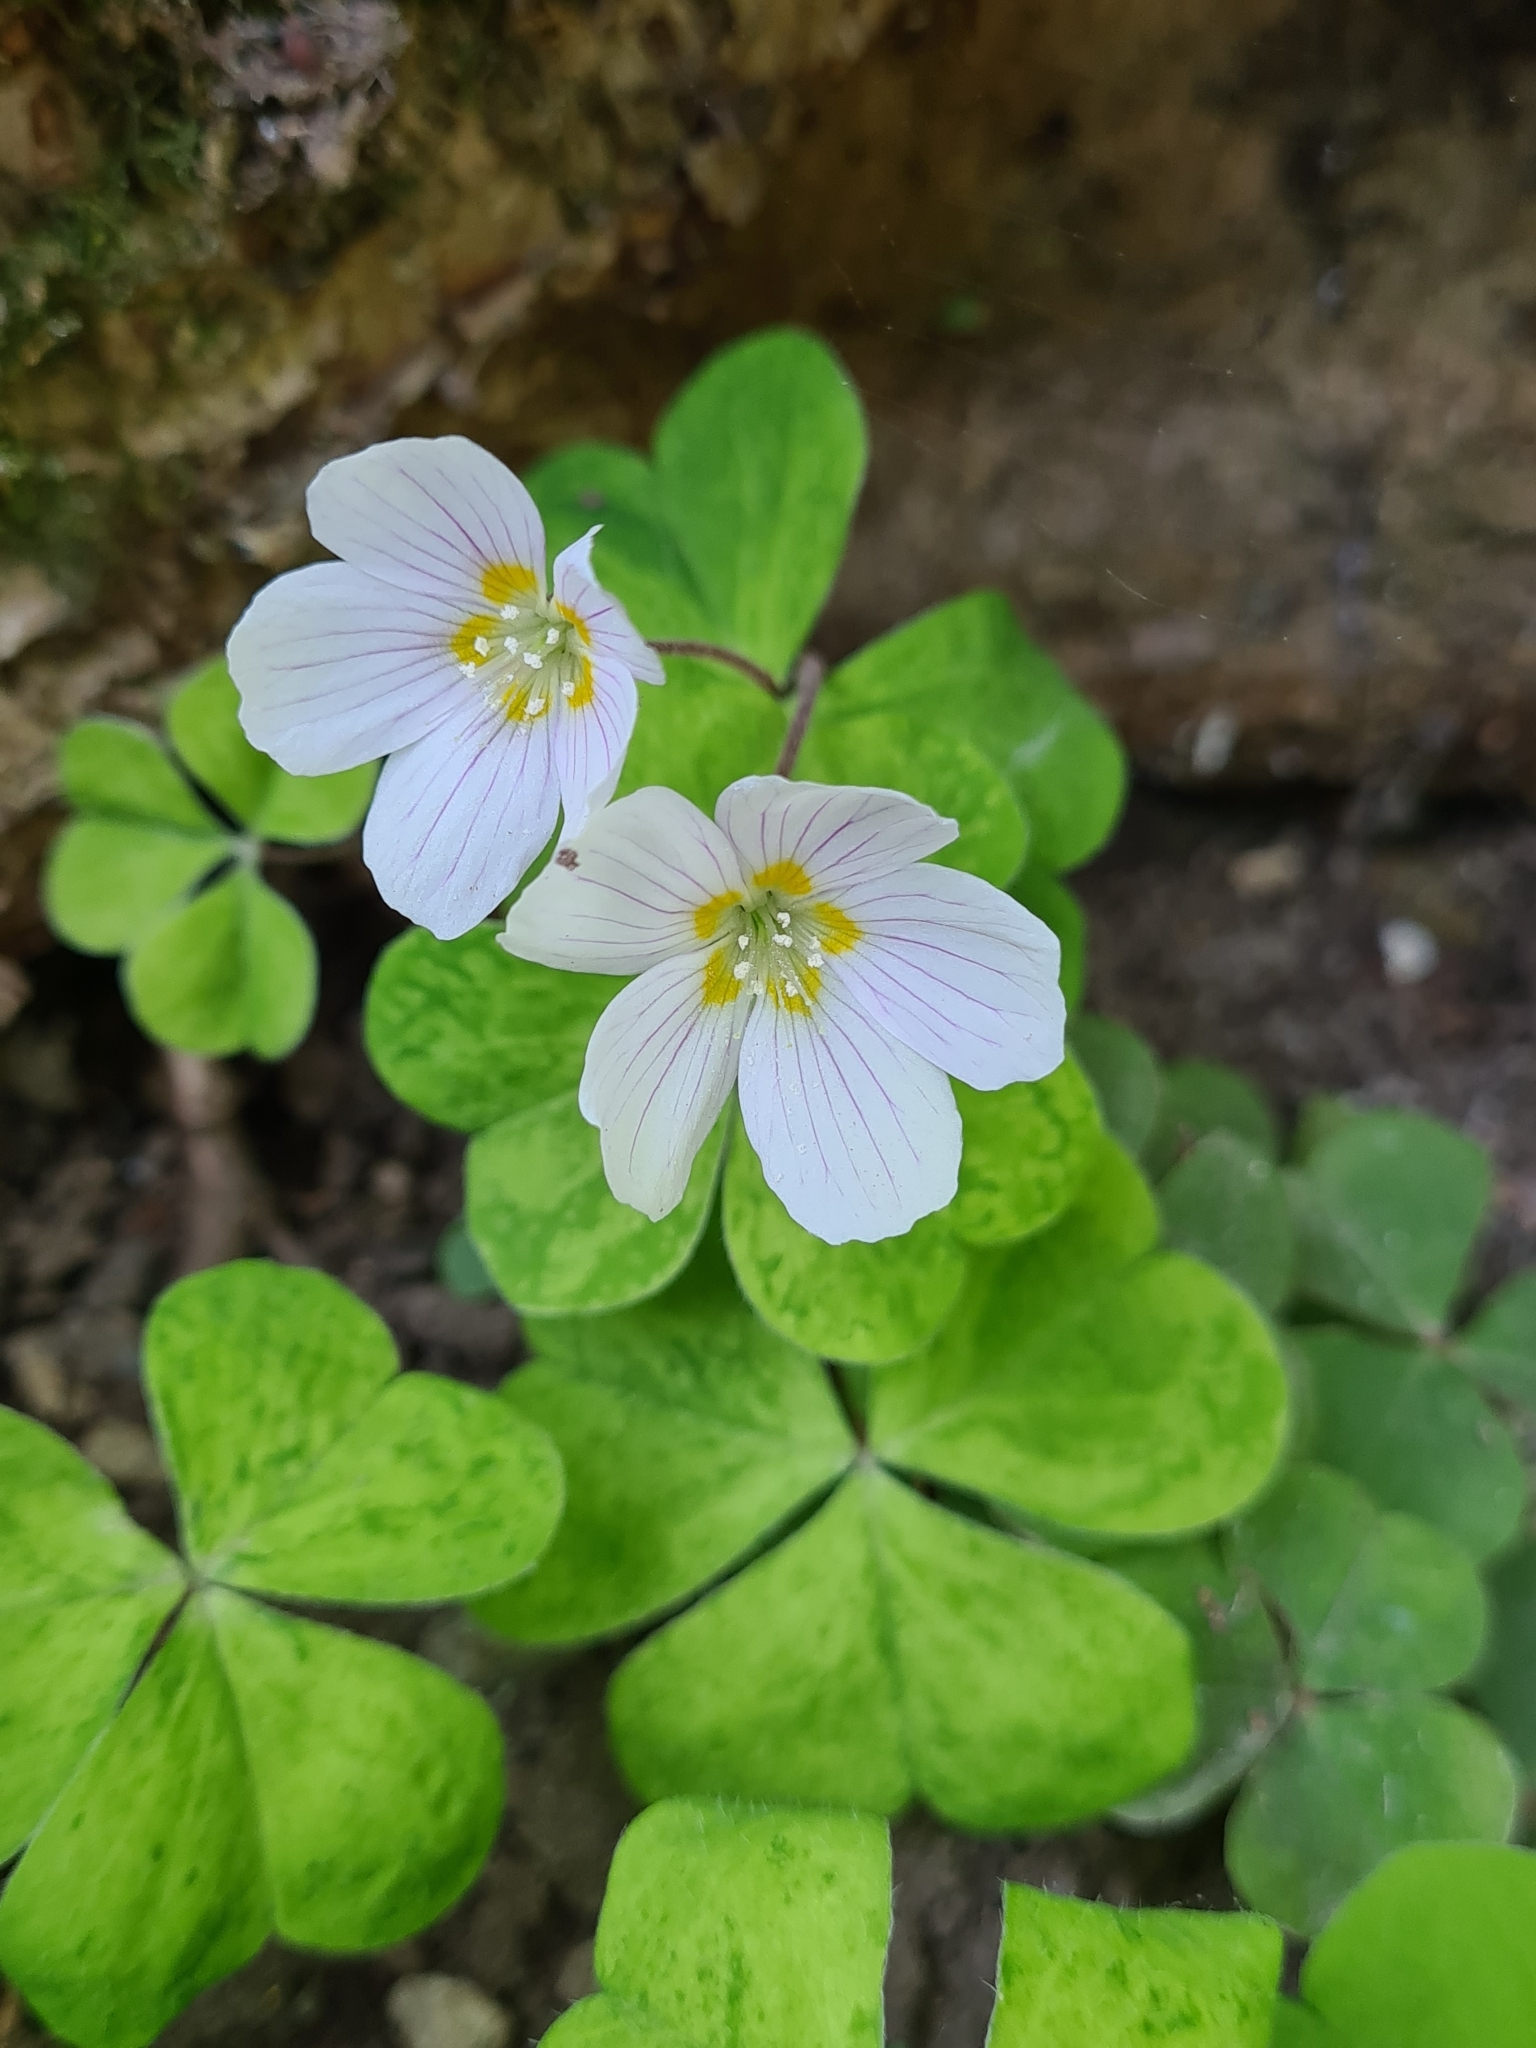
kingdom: Plantae
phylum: Tracheophyta
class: Magnoliopsida
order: Oxalidales
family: Oxalidaceae
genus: Oxalis
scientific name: Oxalis acetosella
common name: Wood-sorrel
